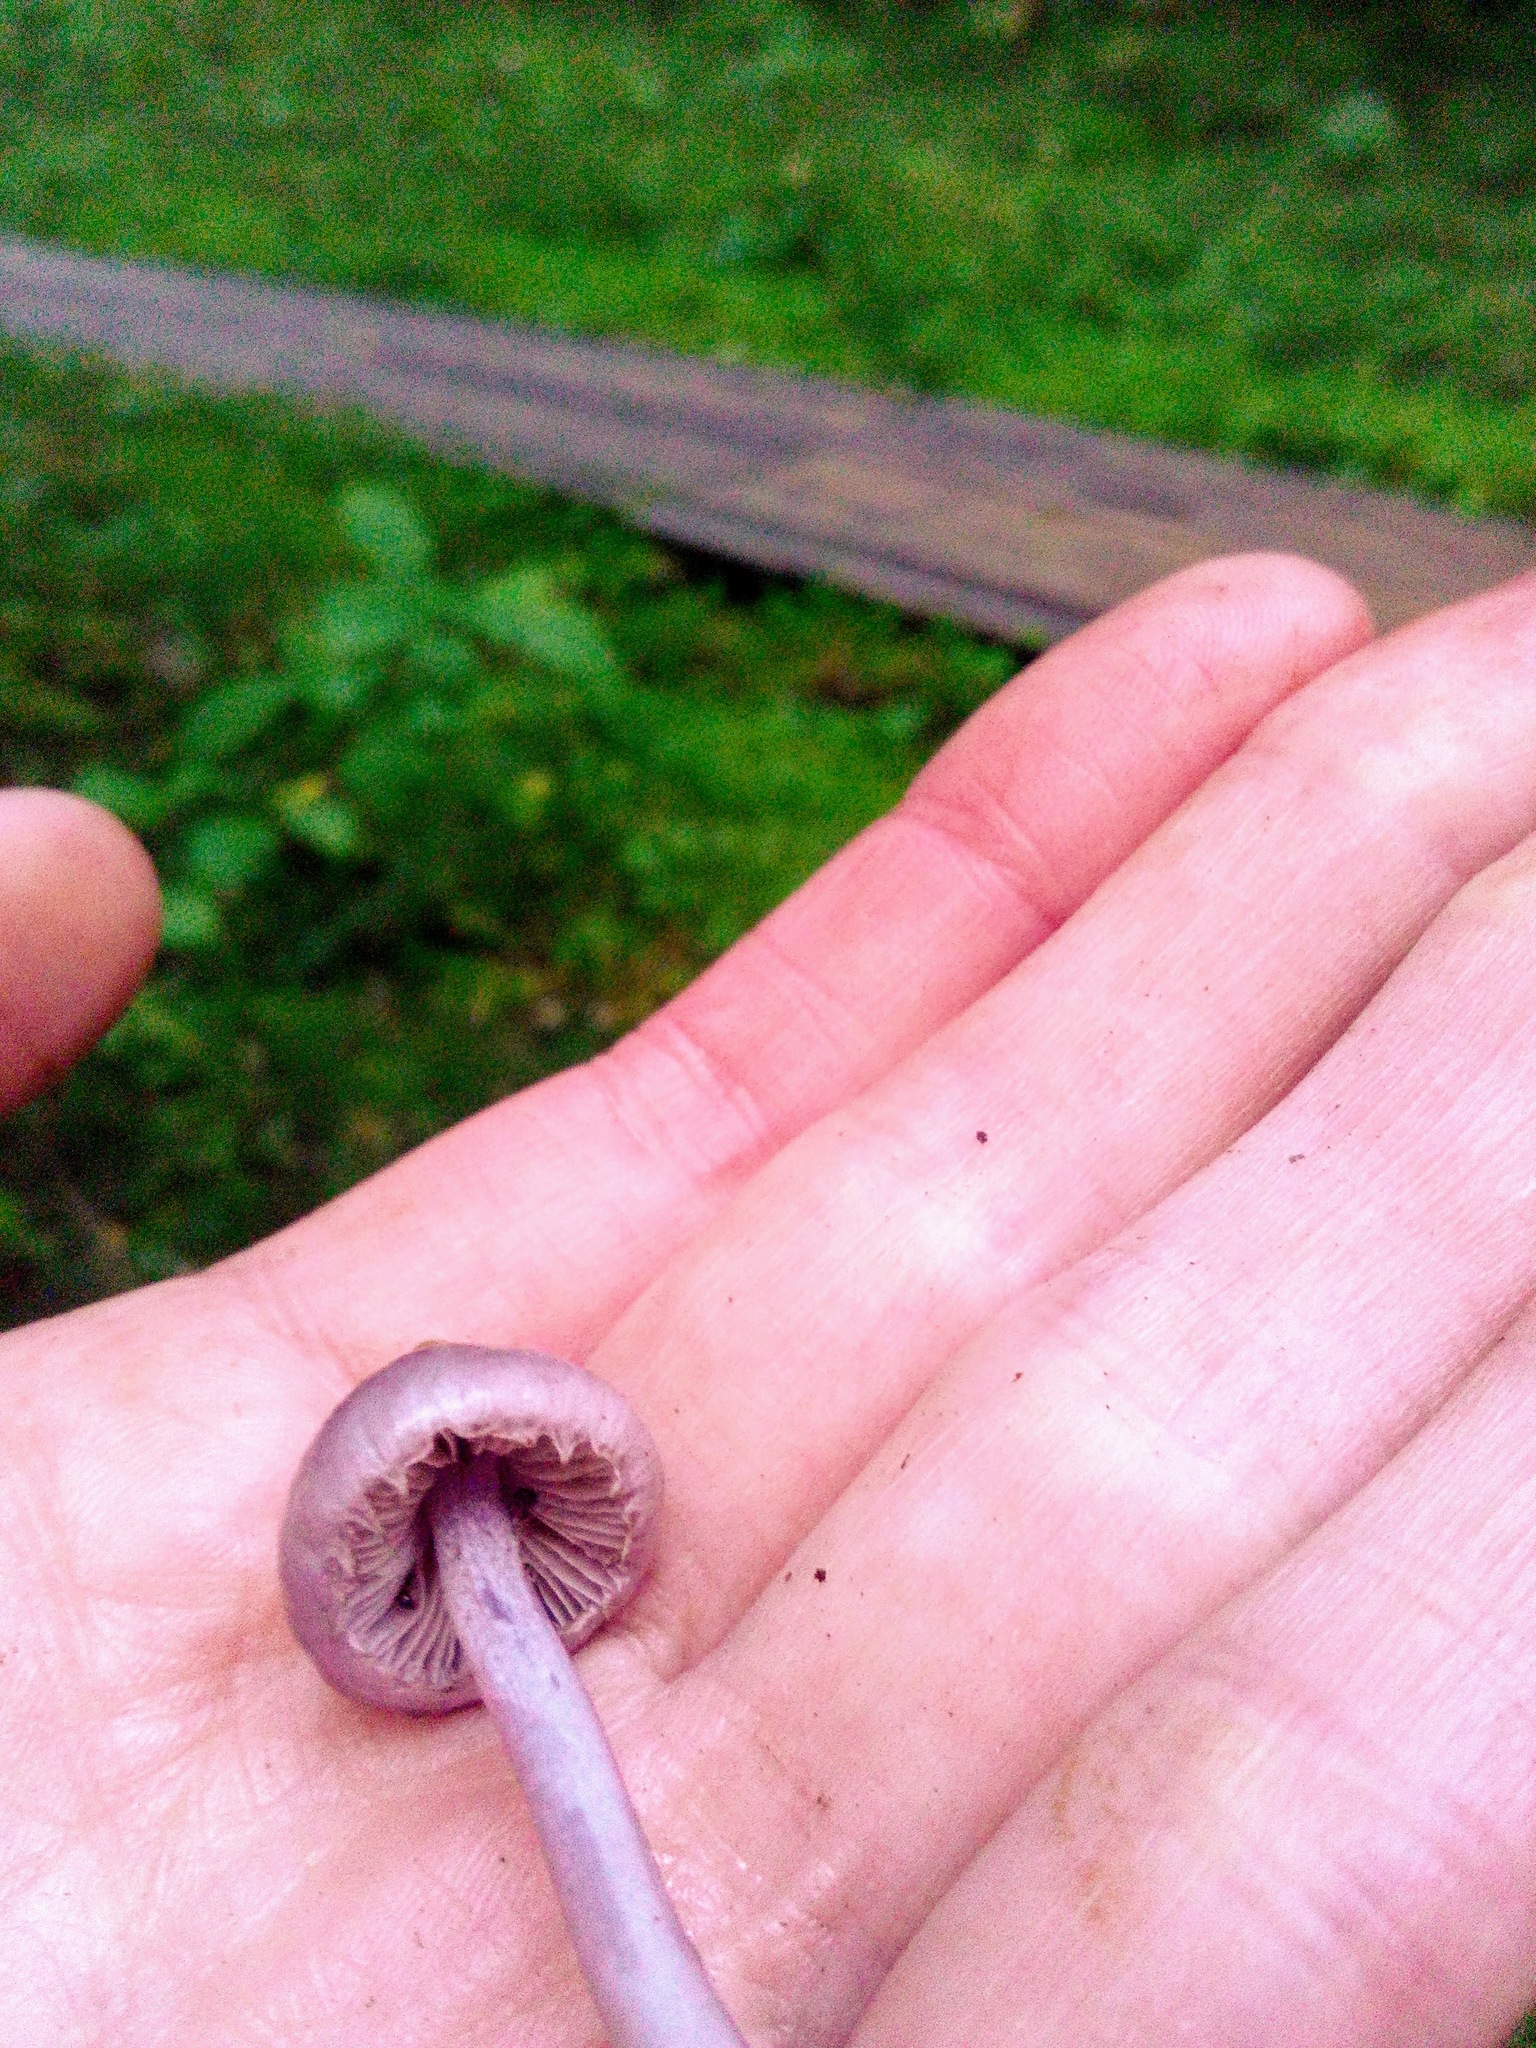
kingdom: Fungi
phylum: Basidiomycota
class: Agaricomycetes
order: Agaricales
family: Inocybaceae
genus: Inocybe
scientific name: Inocybe geophylla
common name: White fibrecap
